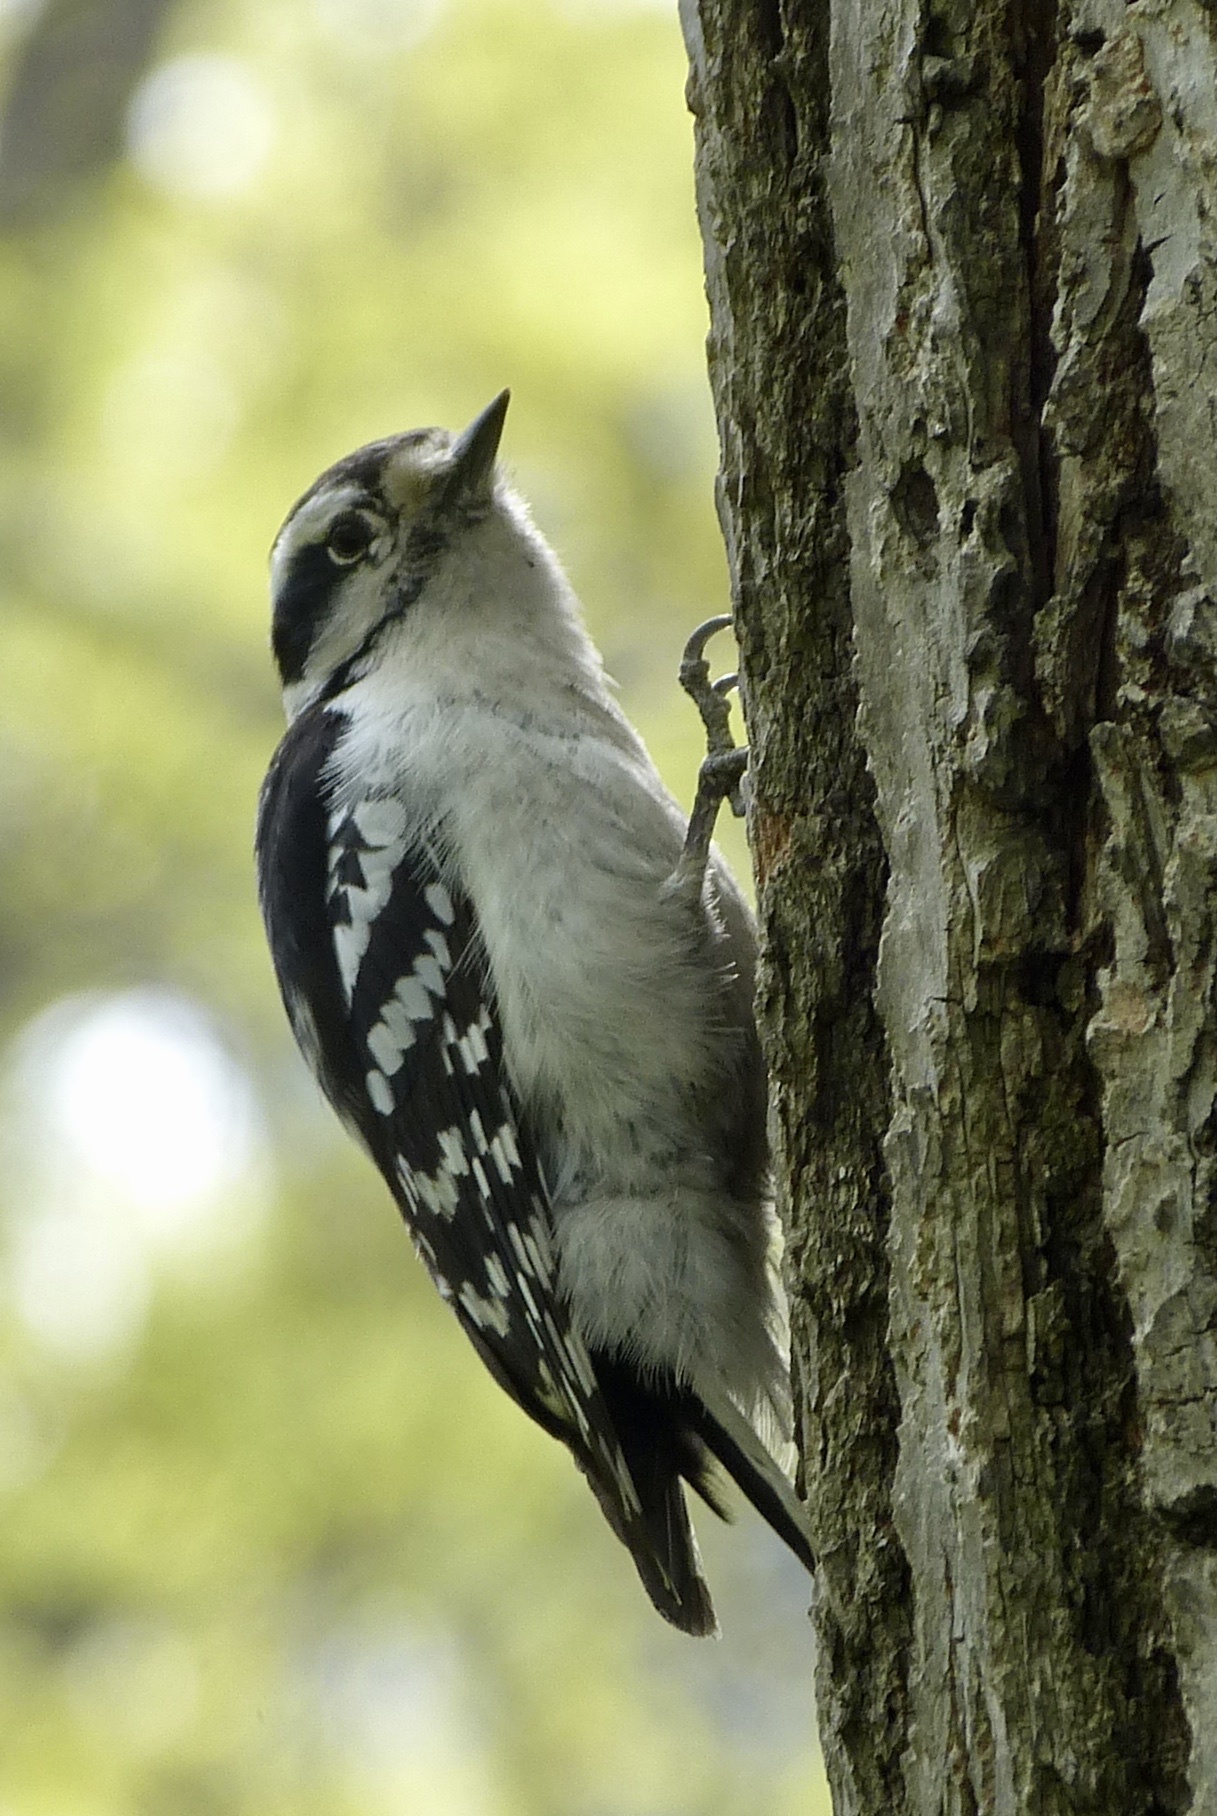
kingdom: Animalia
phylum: Chordata
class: Aves
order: Piciformes
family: Picidae
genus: Dryobates
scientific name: Dryobates pubescens
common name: Downy woodpecker
